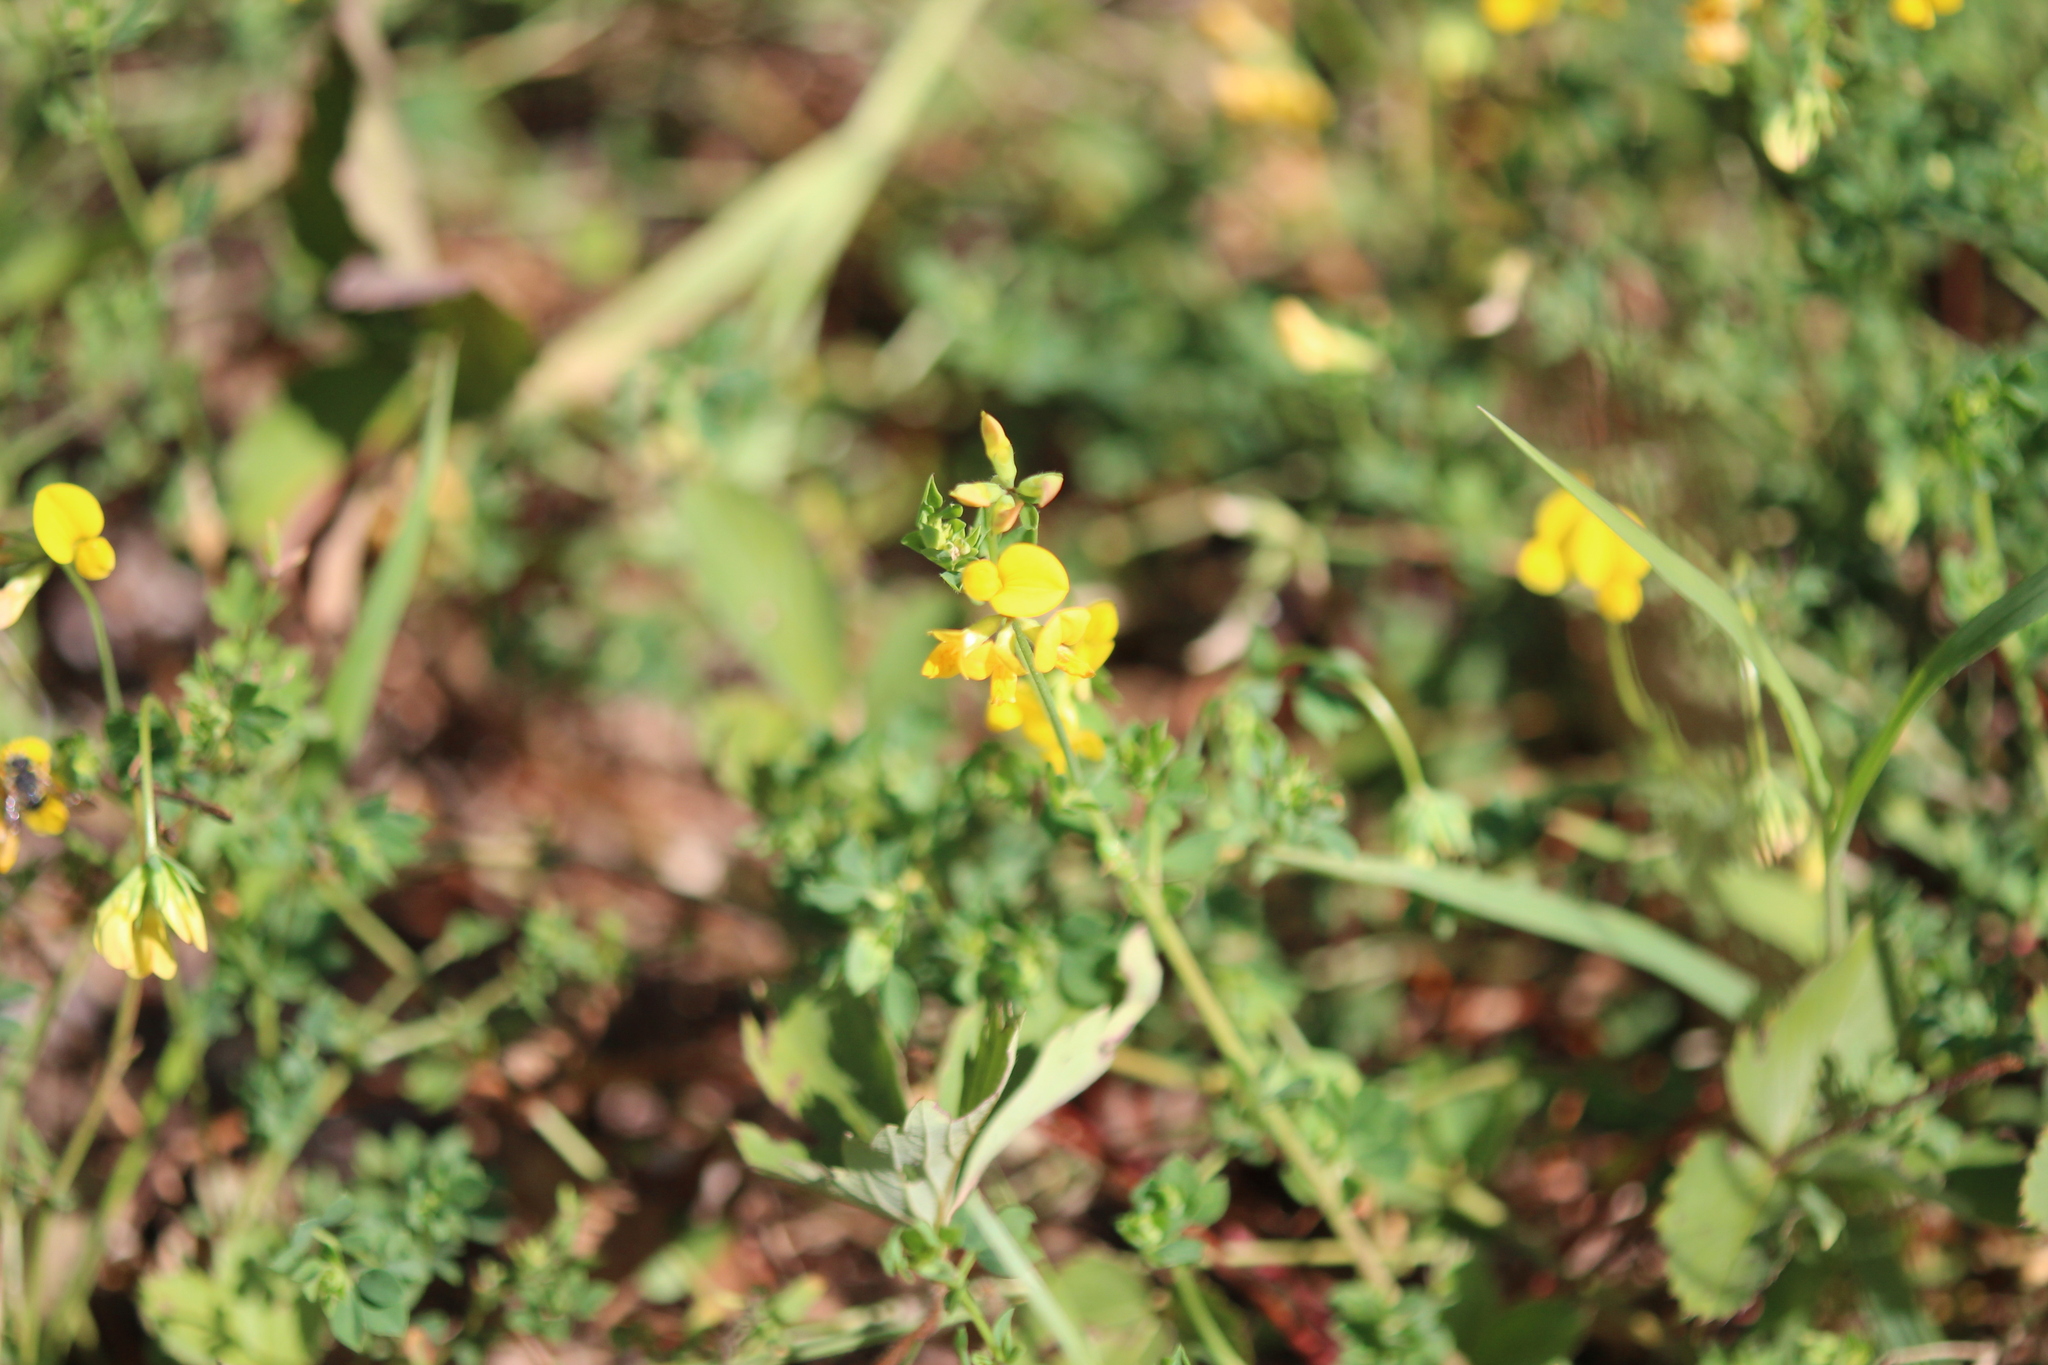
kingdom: Plantae
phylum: Tracheophyta
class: Magnoliopsida
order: Fabales
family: Fabaceae
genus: Lotus
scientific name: Lotus corniculatus
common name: Common bird's-foot-trefoil
